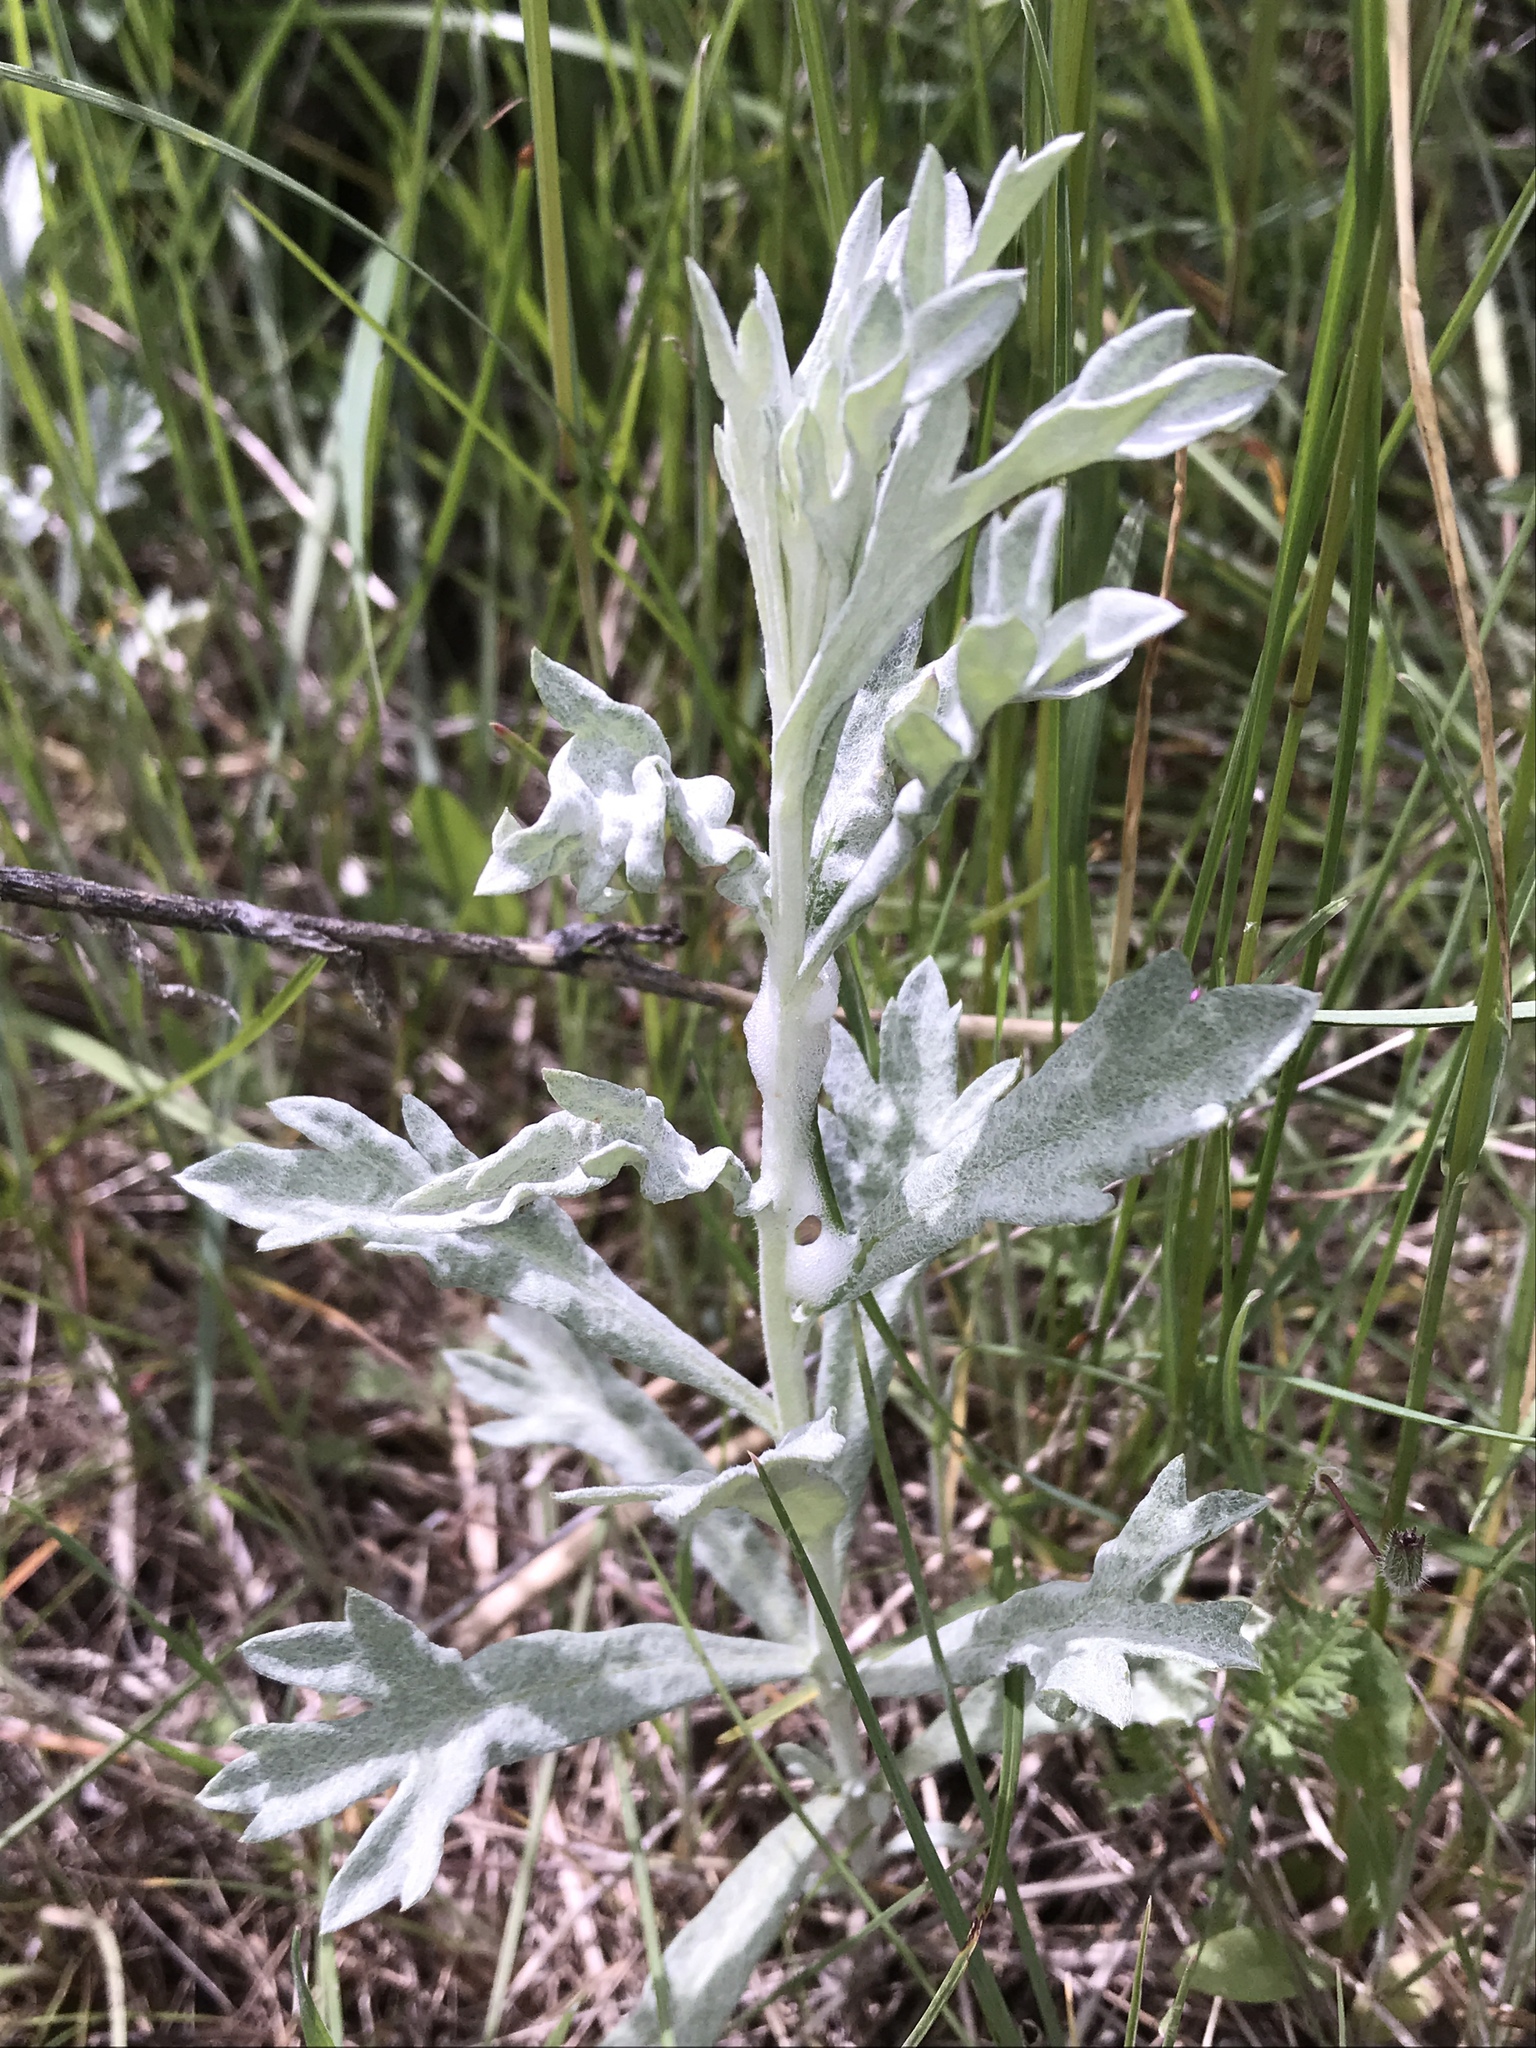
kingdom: Plantae
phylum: Tracheophyta
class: Magnoliopsida
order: Asterales
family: Asteraceae
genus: Artemisia
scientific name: Artemisia ludoviciana
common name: Western mugwort
